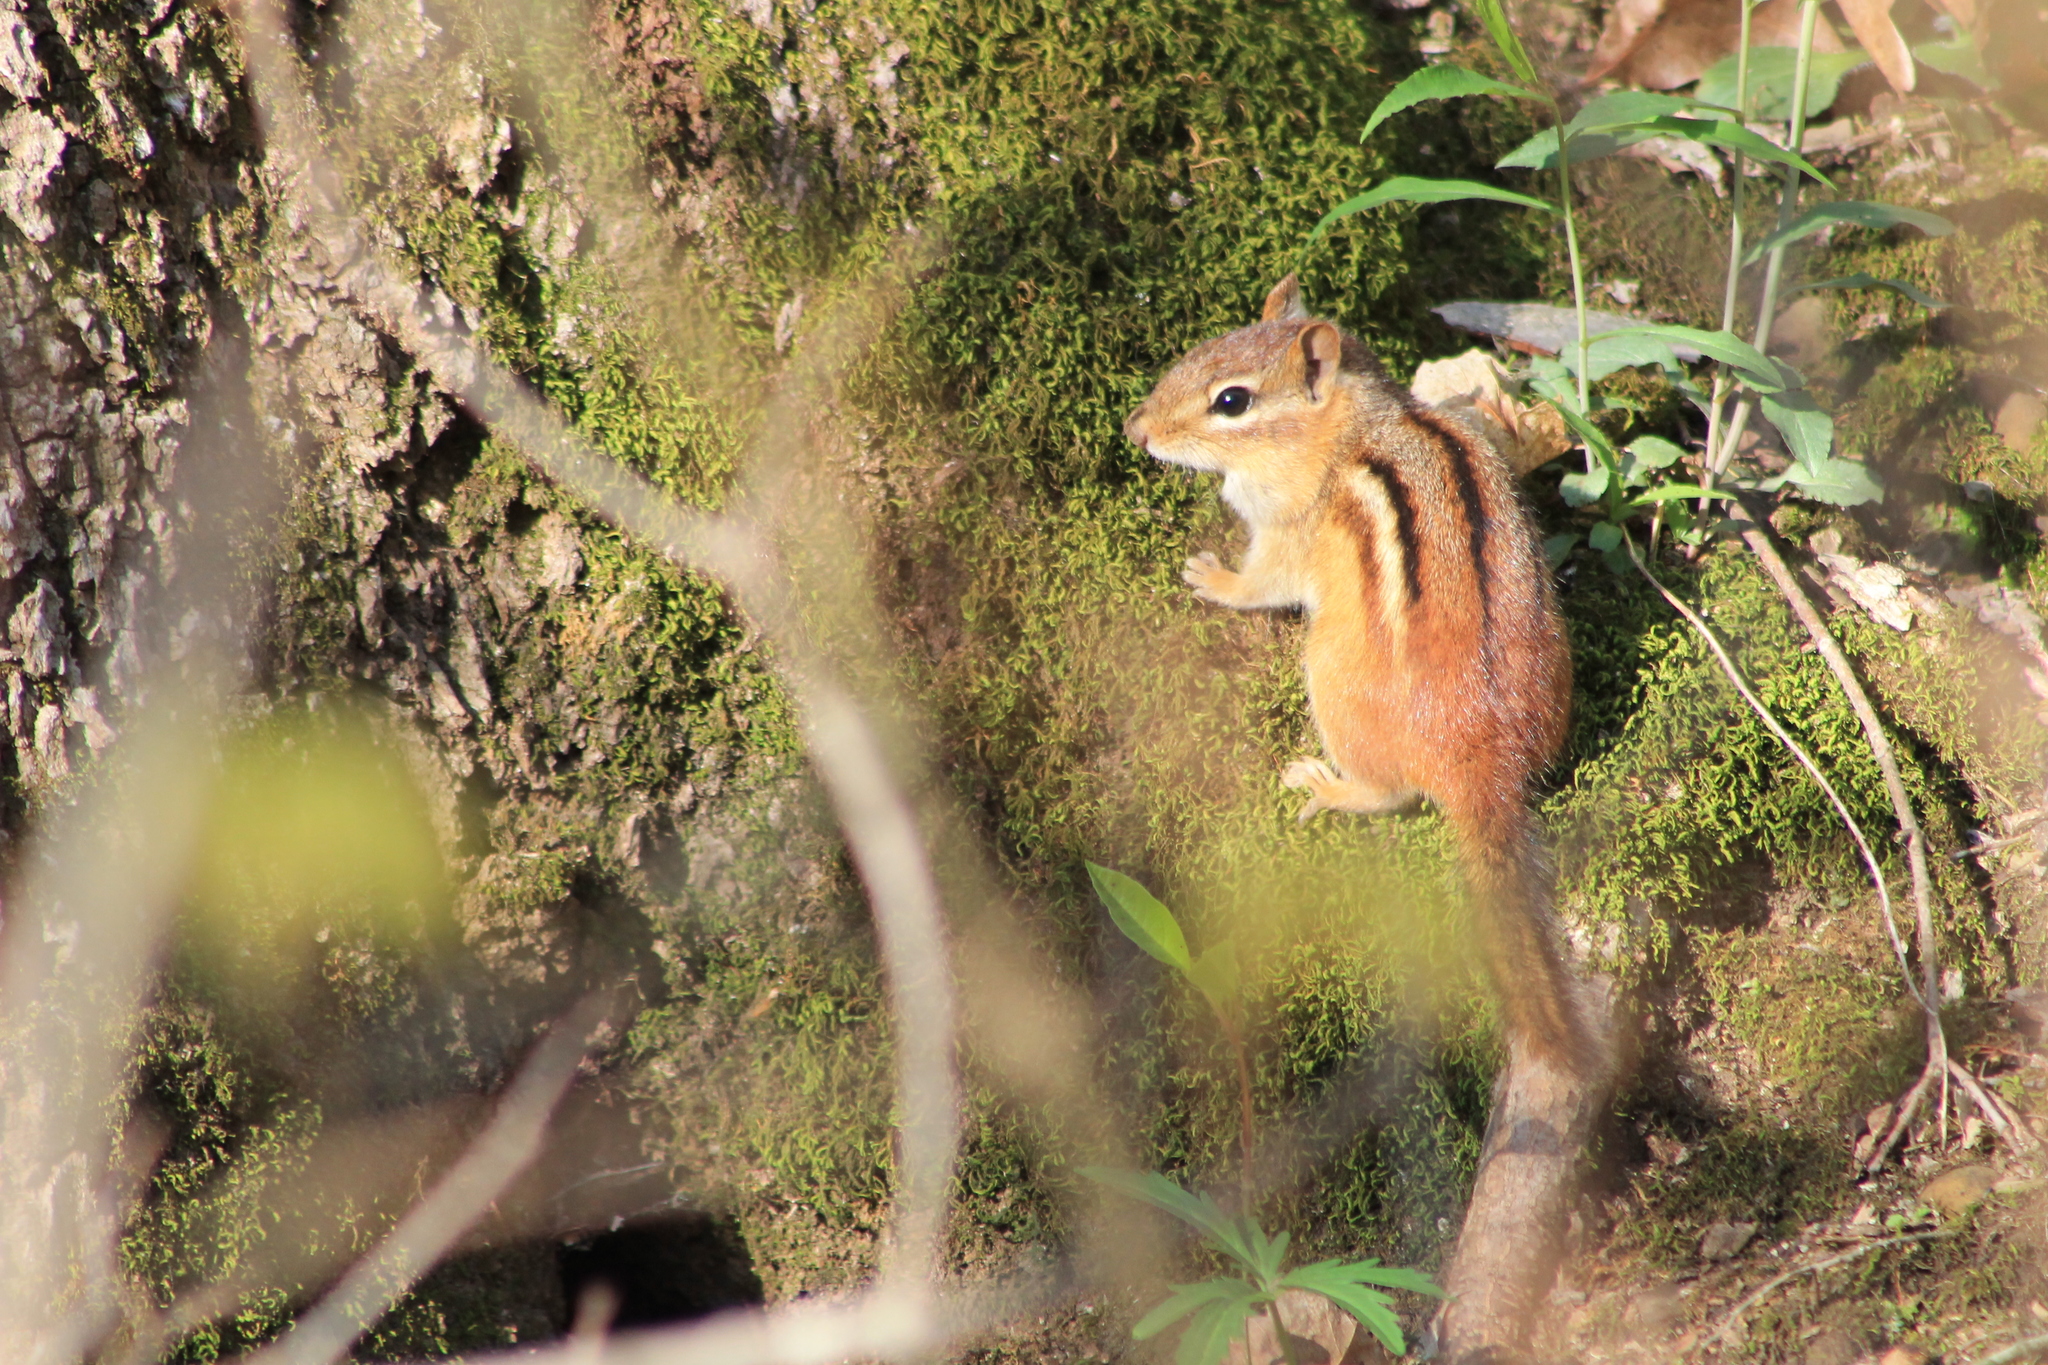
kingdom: Animalia
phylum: Chordata
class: Mammalia
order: Rodentia
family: Sciuridae
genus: Tamias
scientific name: Tamias striatus
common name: Eastern chipmunk
